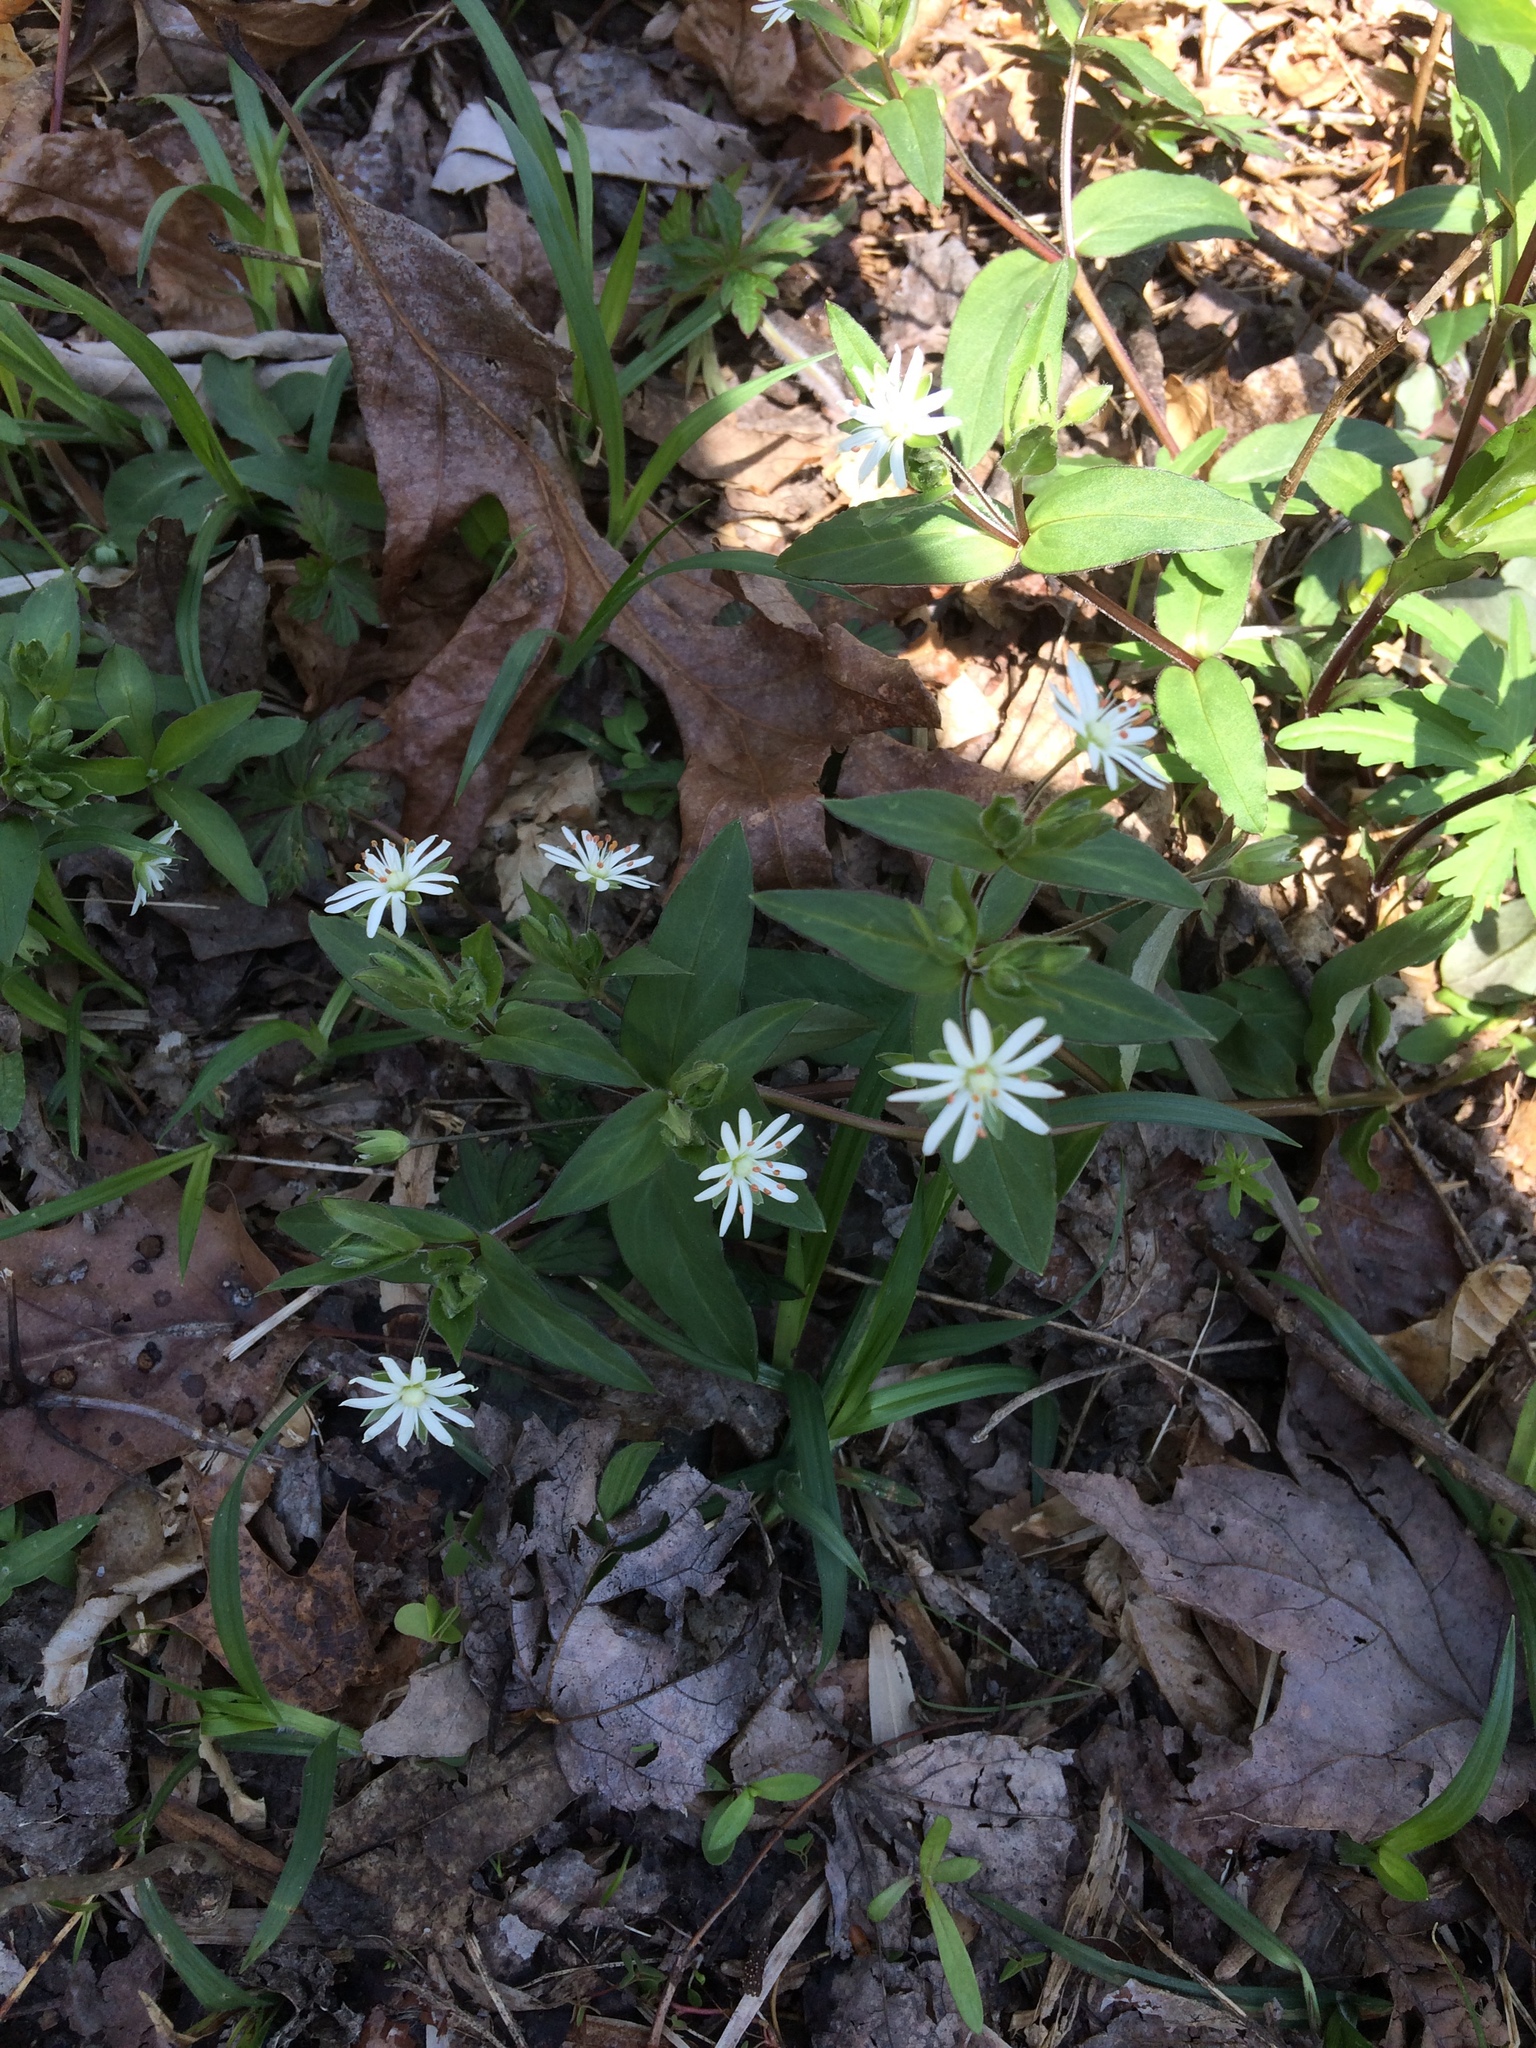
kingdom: Plantae
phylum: Tracheophyta
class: Magnoliopsida
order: Caryophyllales
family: Caryophyllaceae
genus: Stellaria
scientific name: Stellaria pubera
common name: Star chickweed
